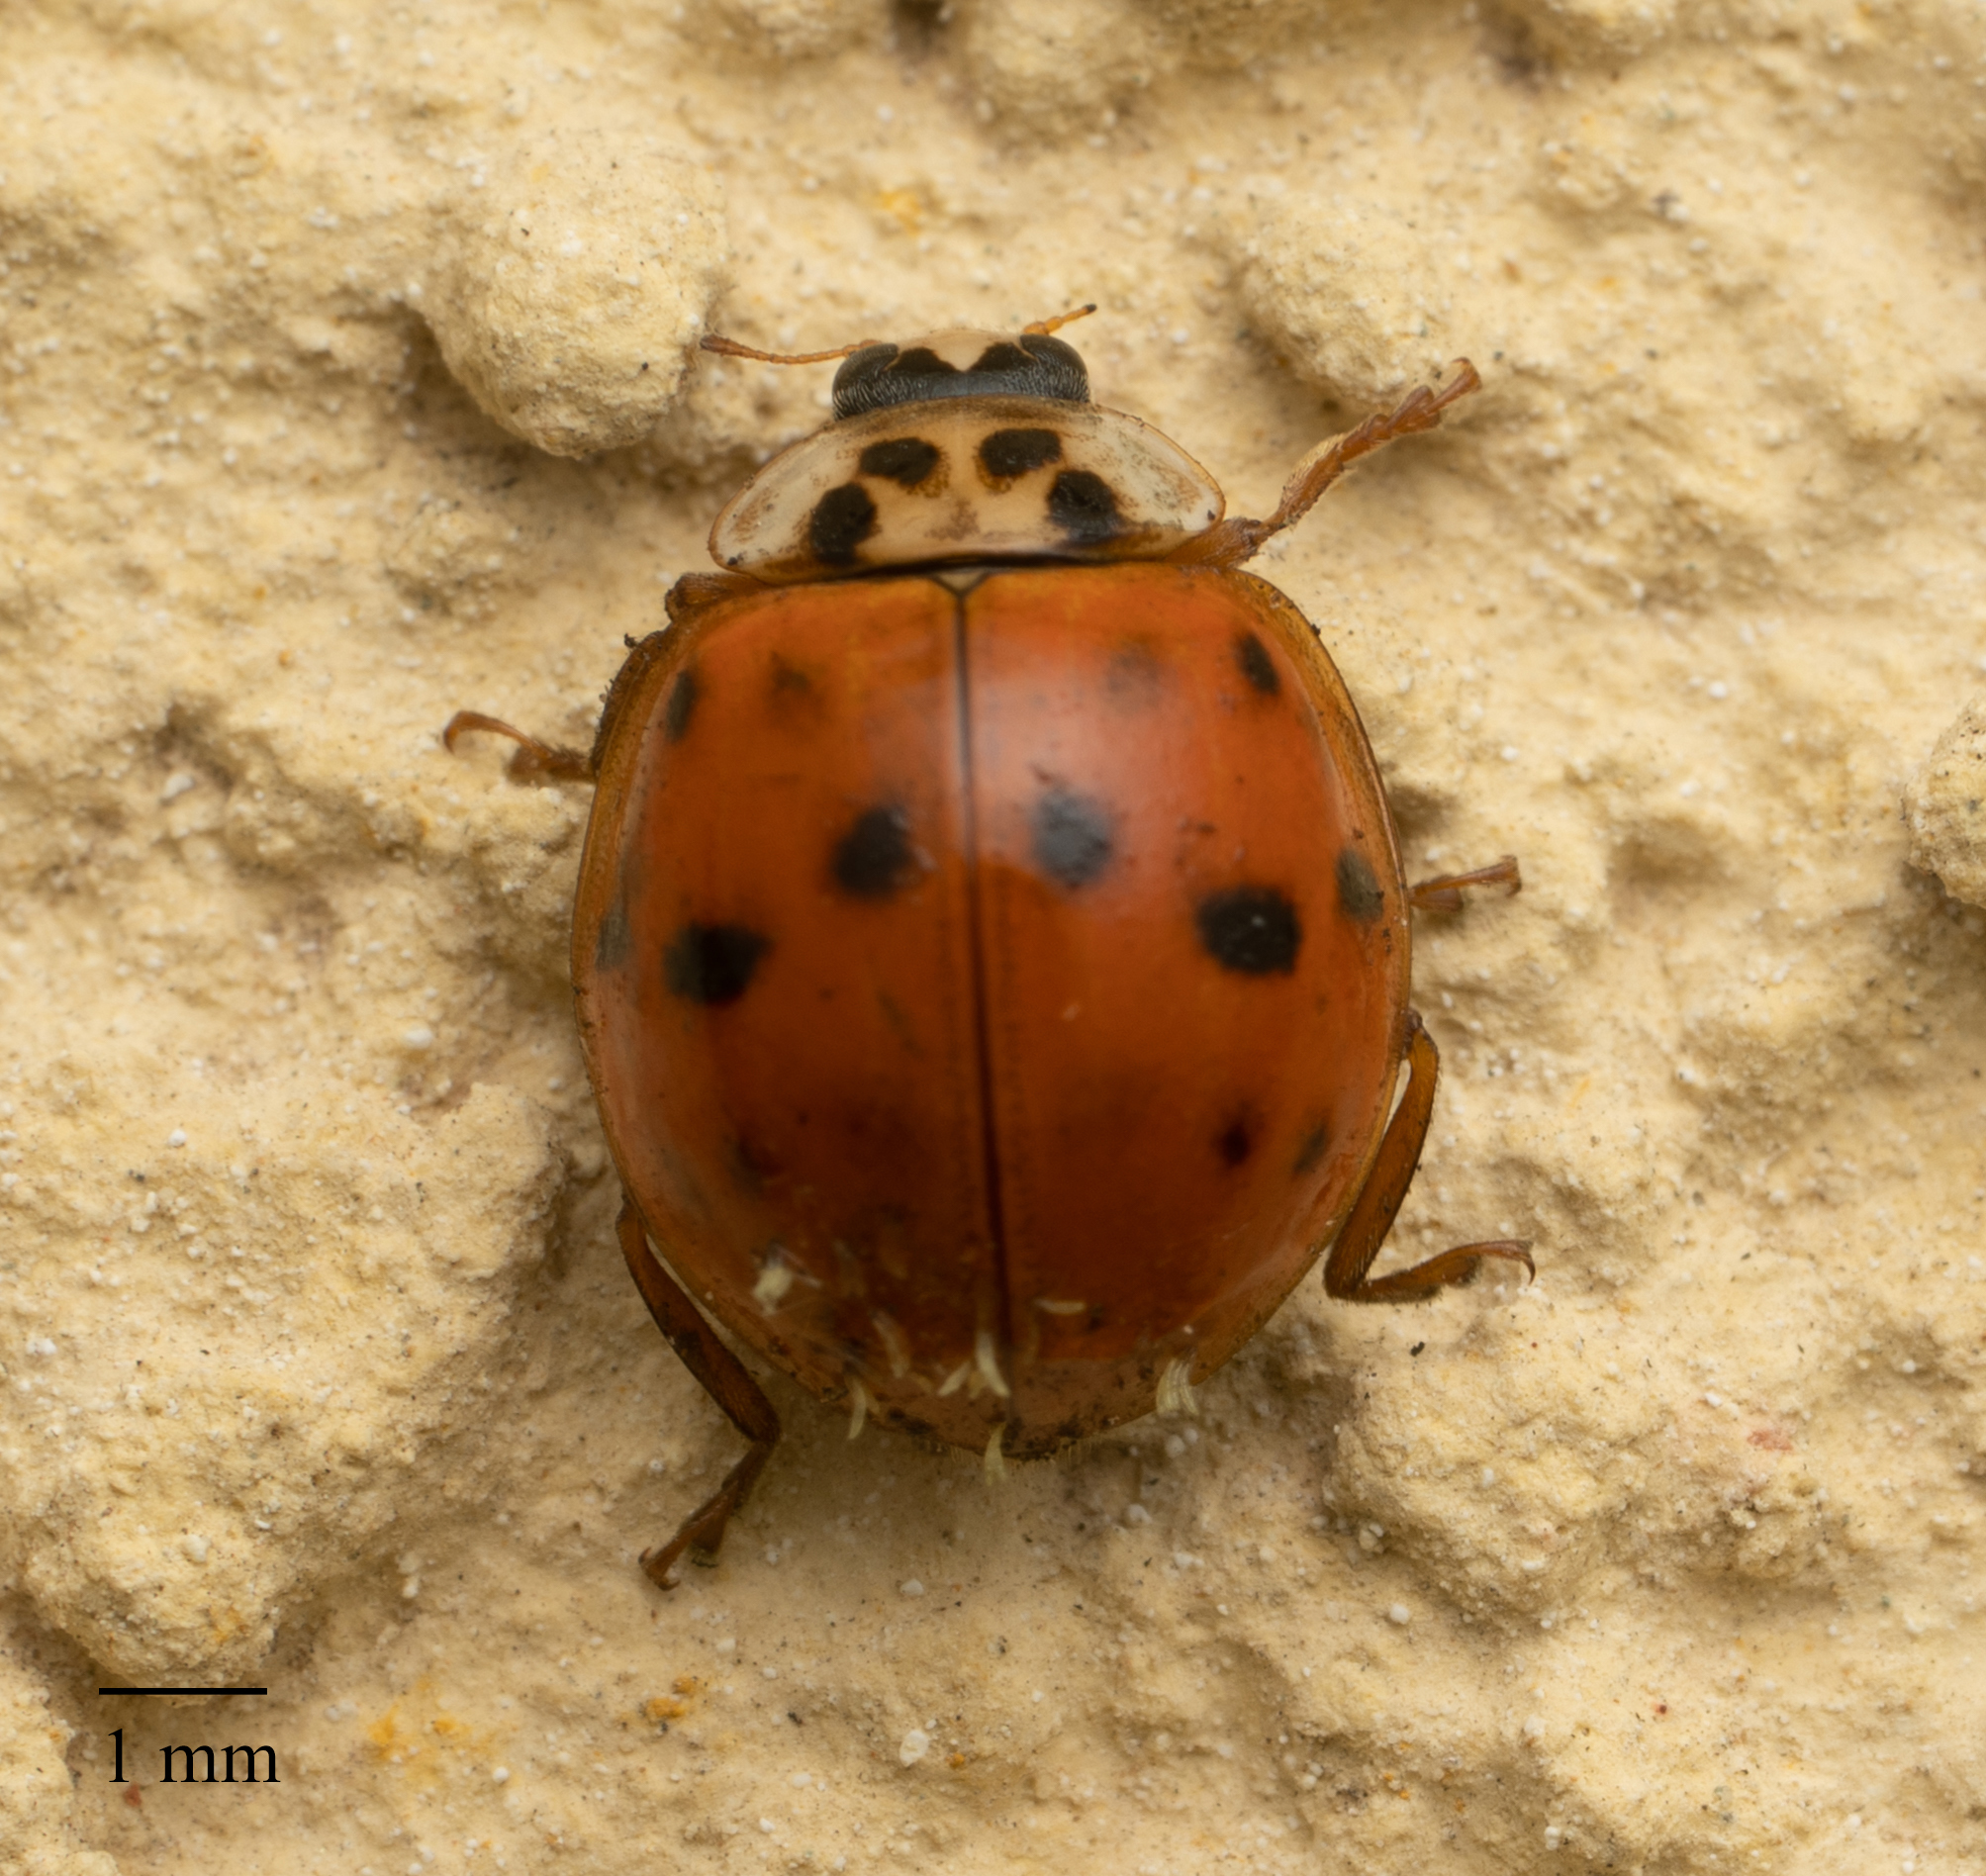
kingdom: Animalia
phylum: Arthropoda
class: Insecta
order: Coleoptera
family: Coccinellidae
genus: Harmonia
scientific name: Harmonia axyridis
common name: Harlequin ladybird
